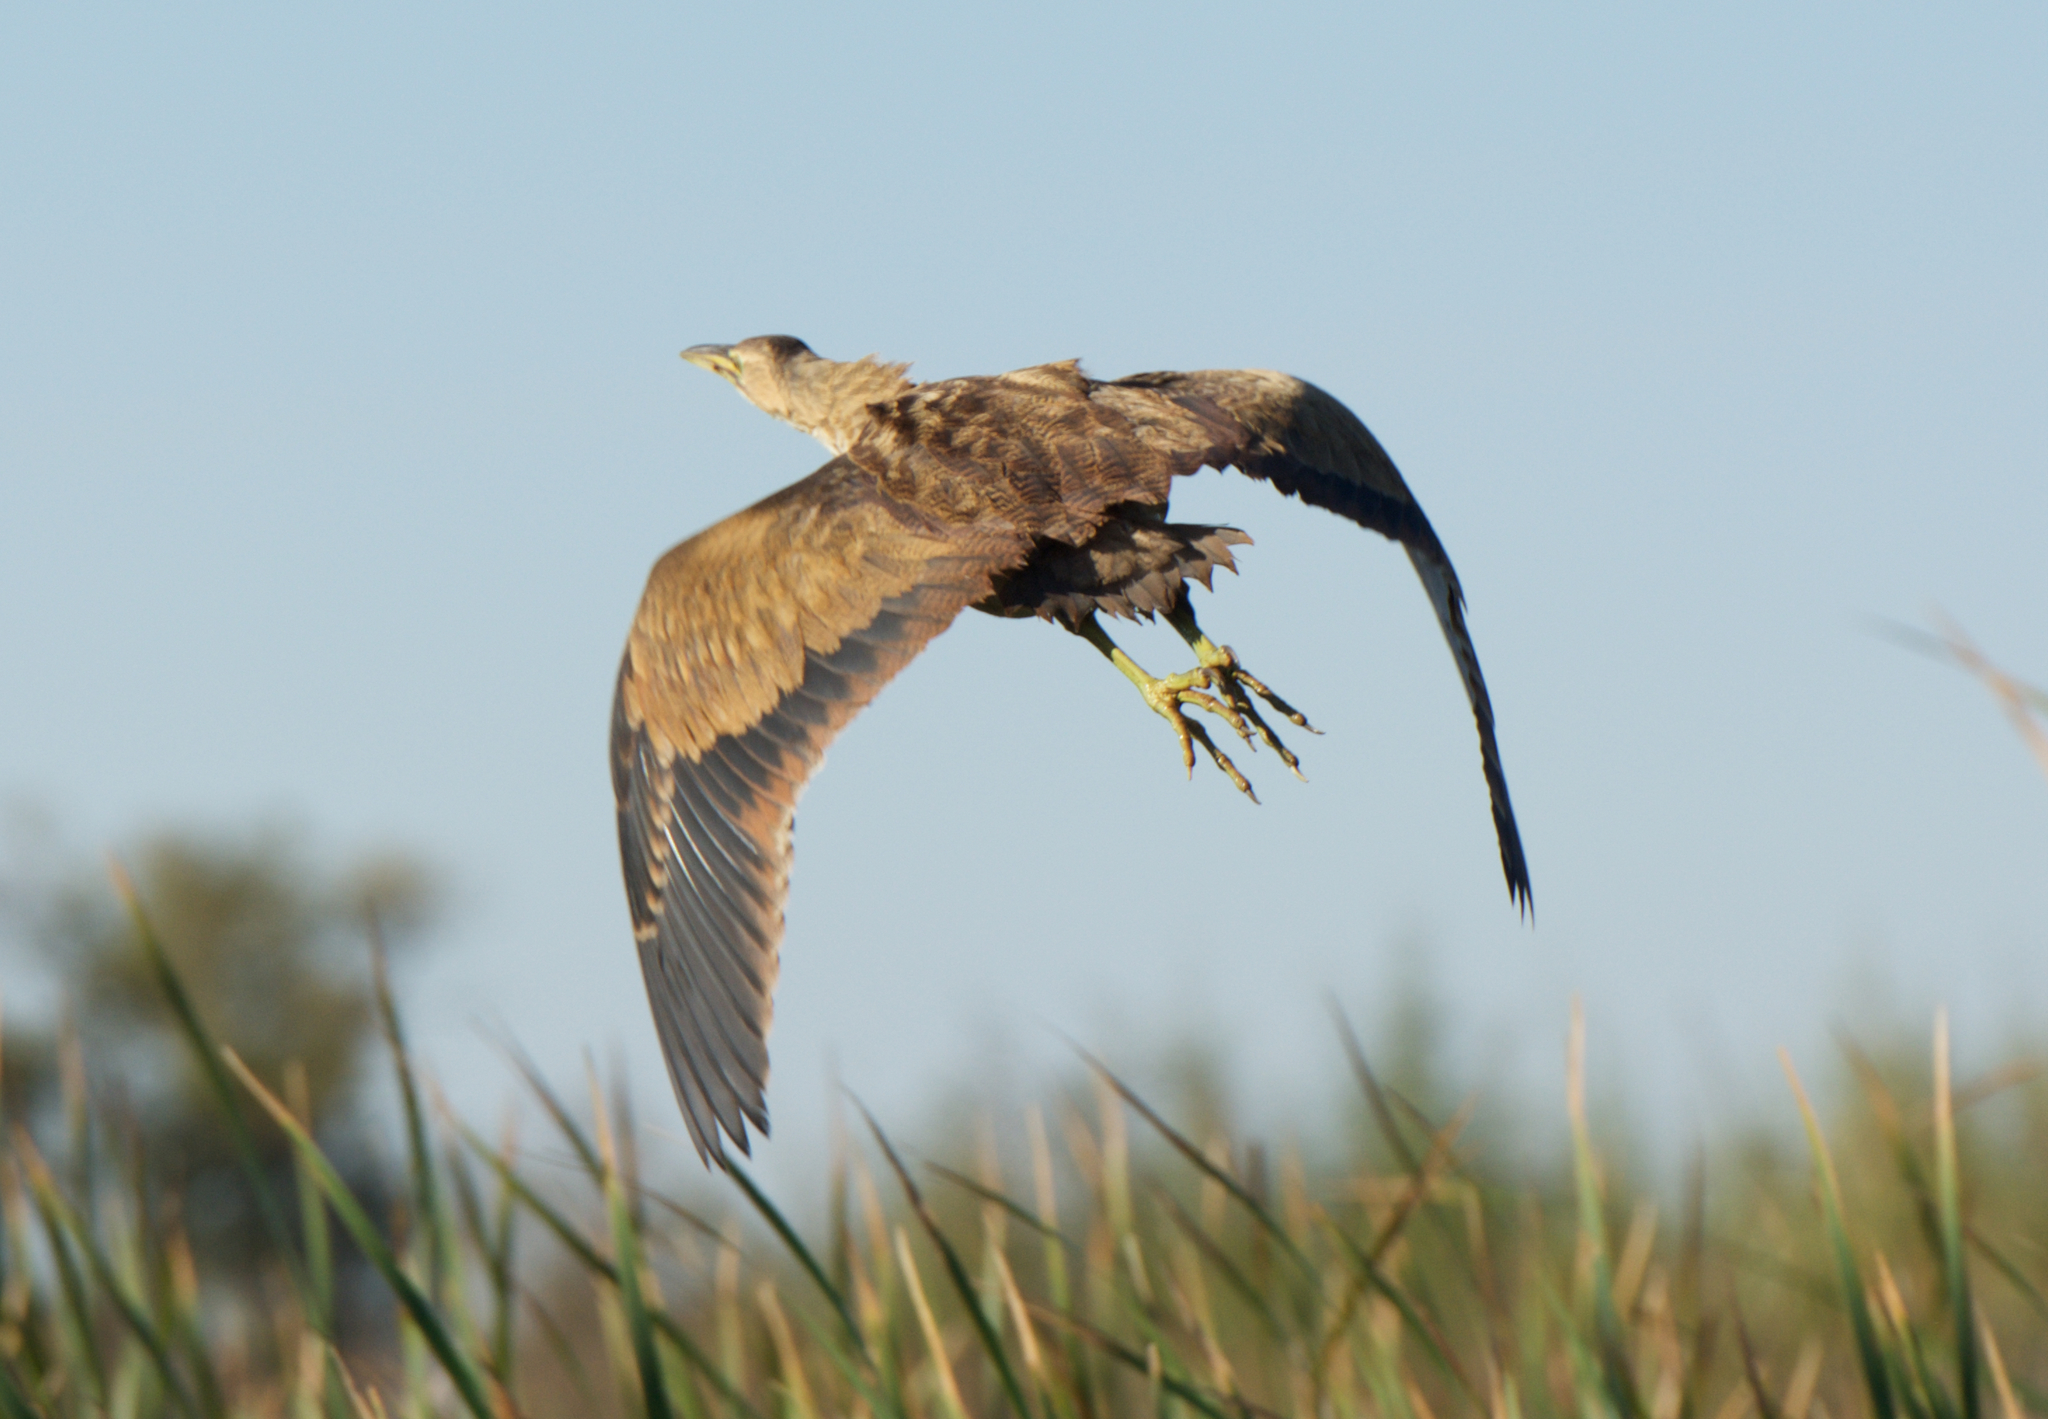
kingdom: Animalia
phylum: Chordata
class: Aves
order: Pelecaniformes
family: Ardeidae
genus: Botaurus
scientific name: Botaurus lentiginosus
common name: American bittern
